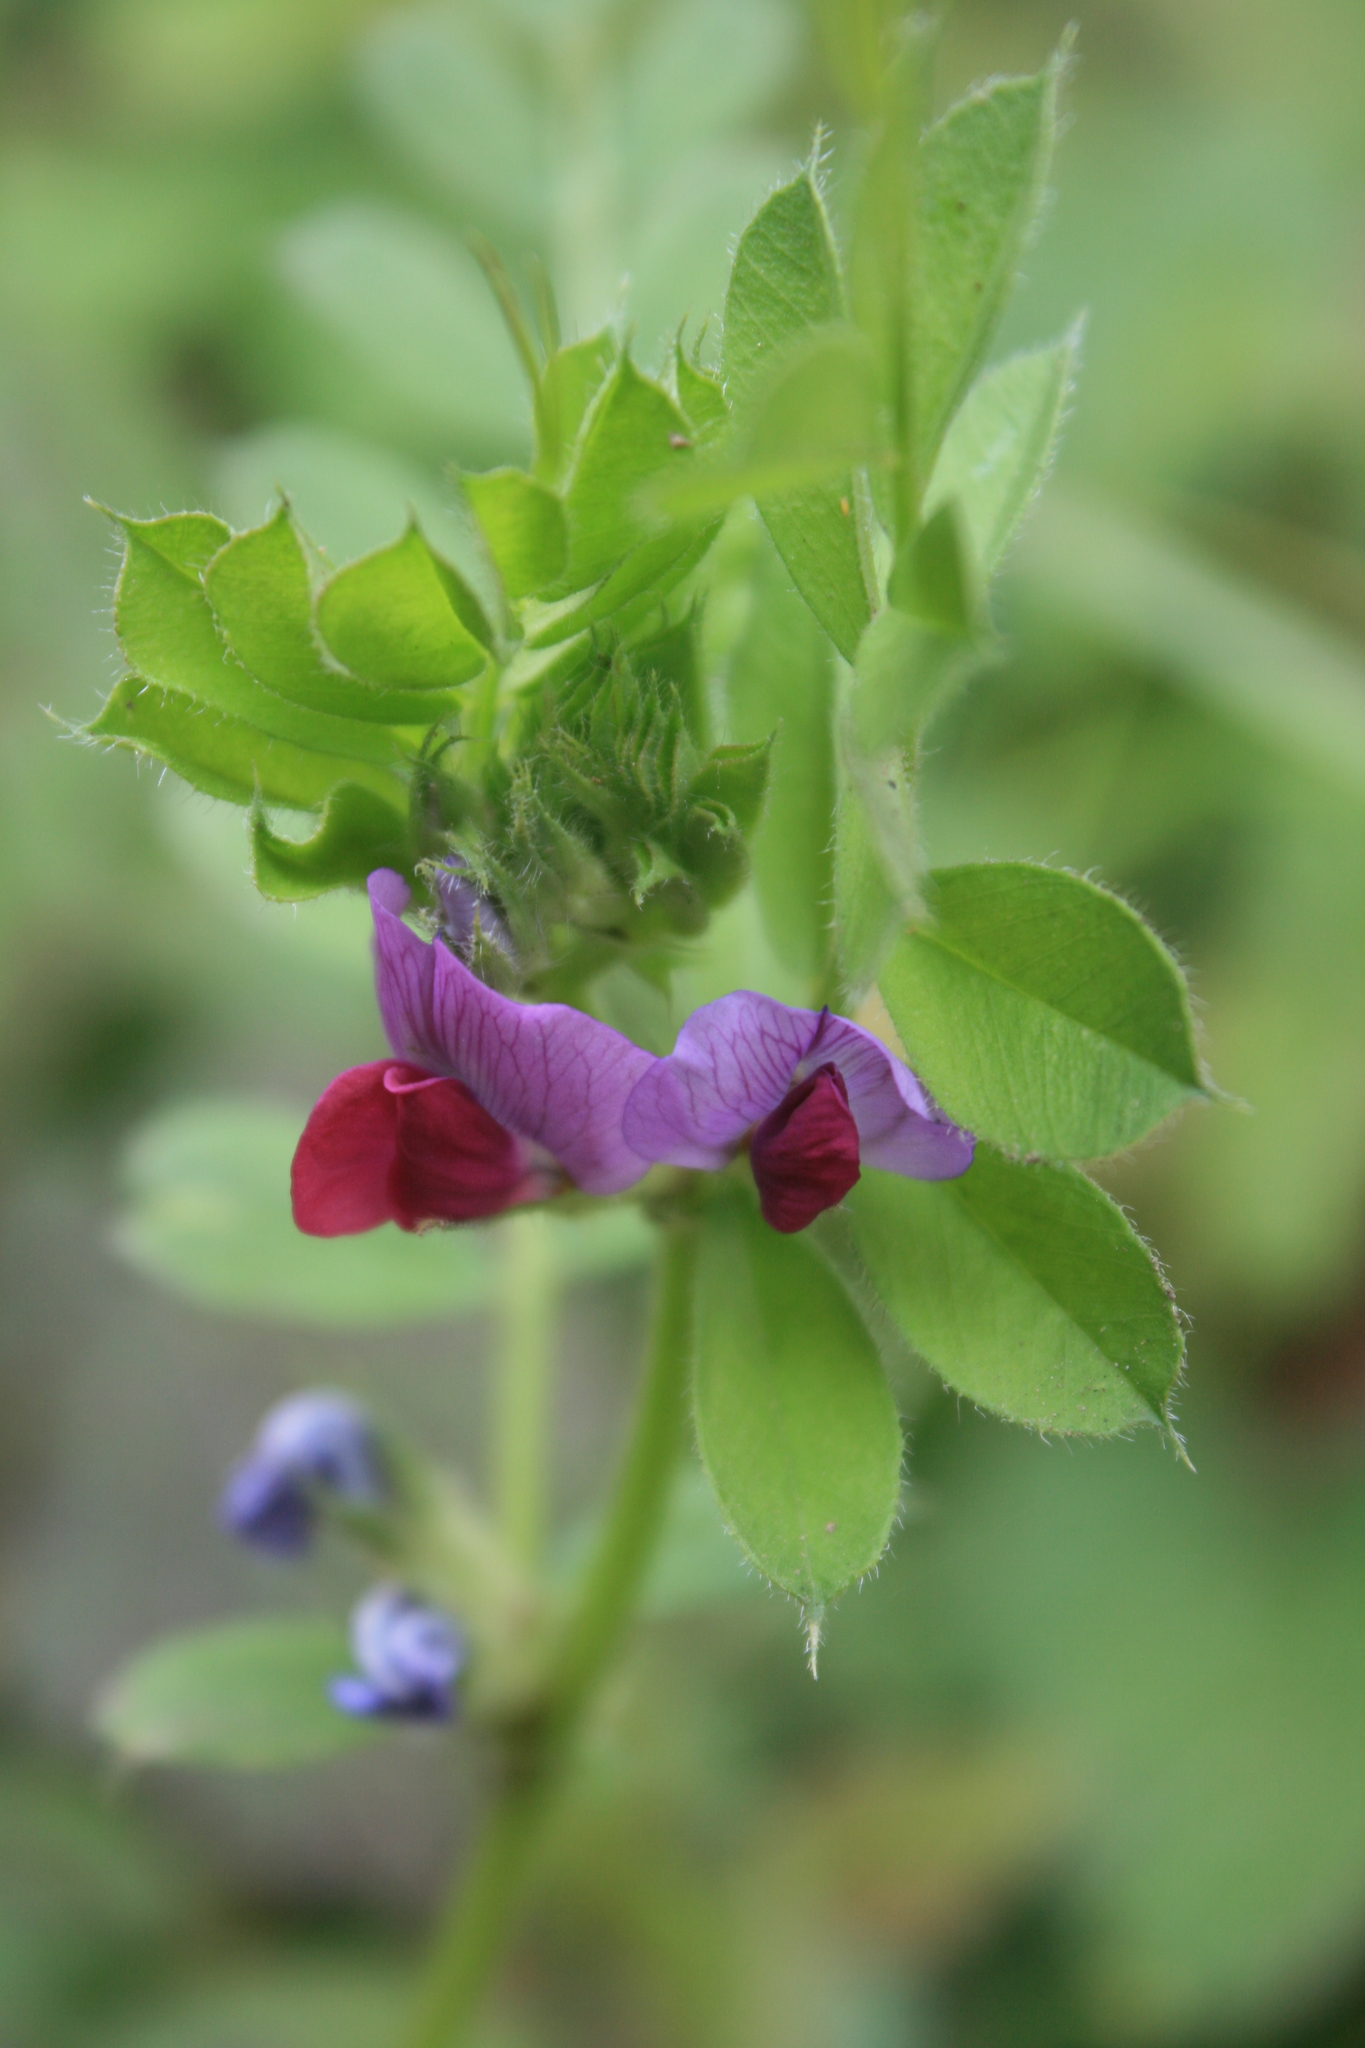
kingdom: Plantae
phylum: Tracheophyta
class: Magnoliopsida
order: Fabales
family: Fabaceae
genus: Vicia
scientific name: Vicia sativa
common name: Garden vetch
